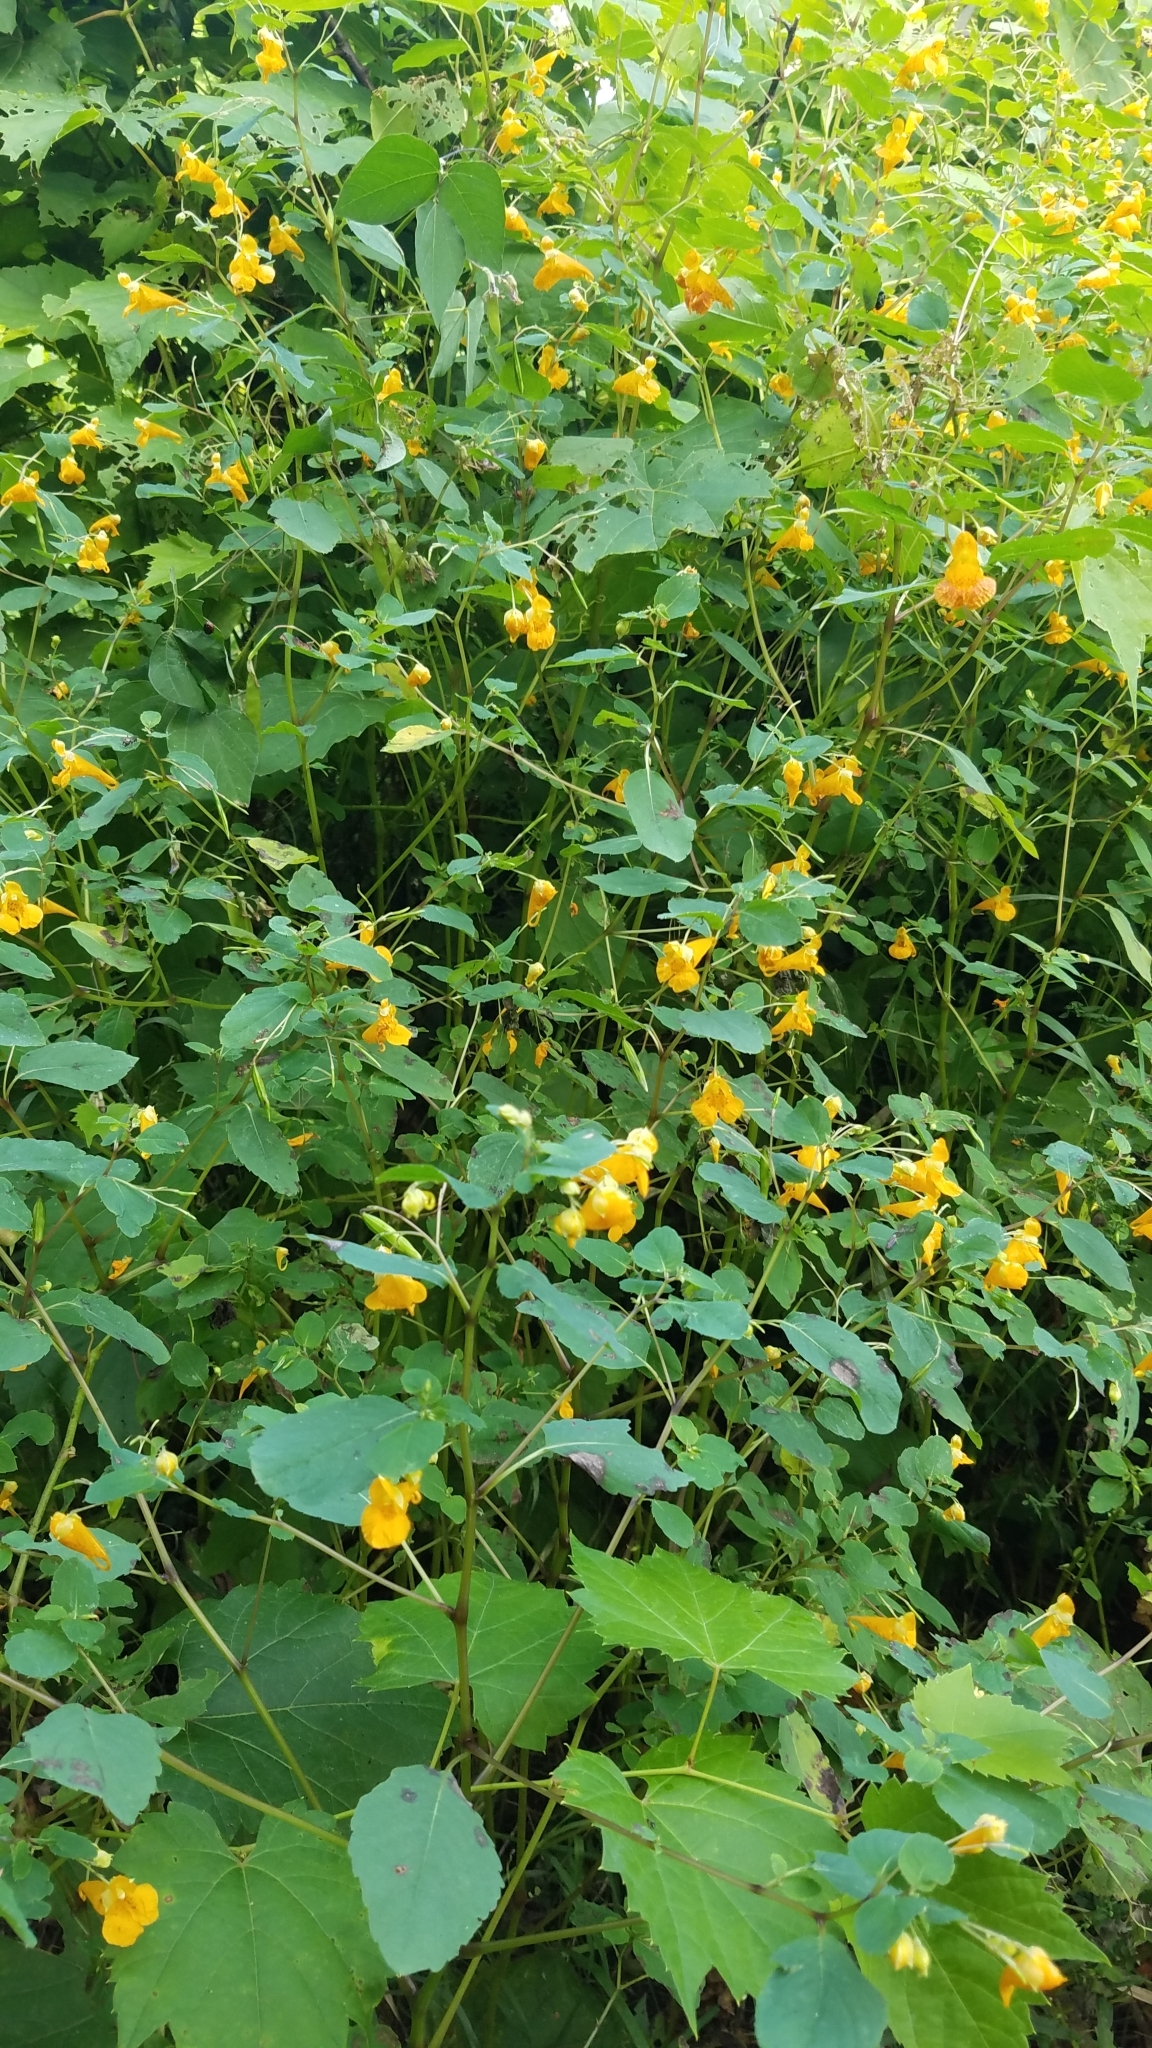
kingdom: Plantae
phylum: Tracheophyta
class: Magnoliopsida
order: Ericales
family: Balsaminaceae
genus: Impatiens
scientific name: Impatiens capensis
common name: Orange balsam
